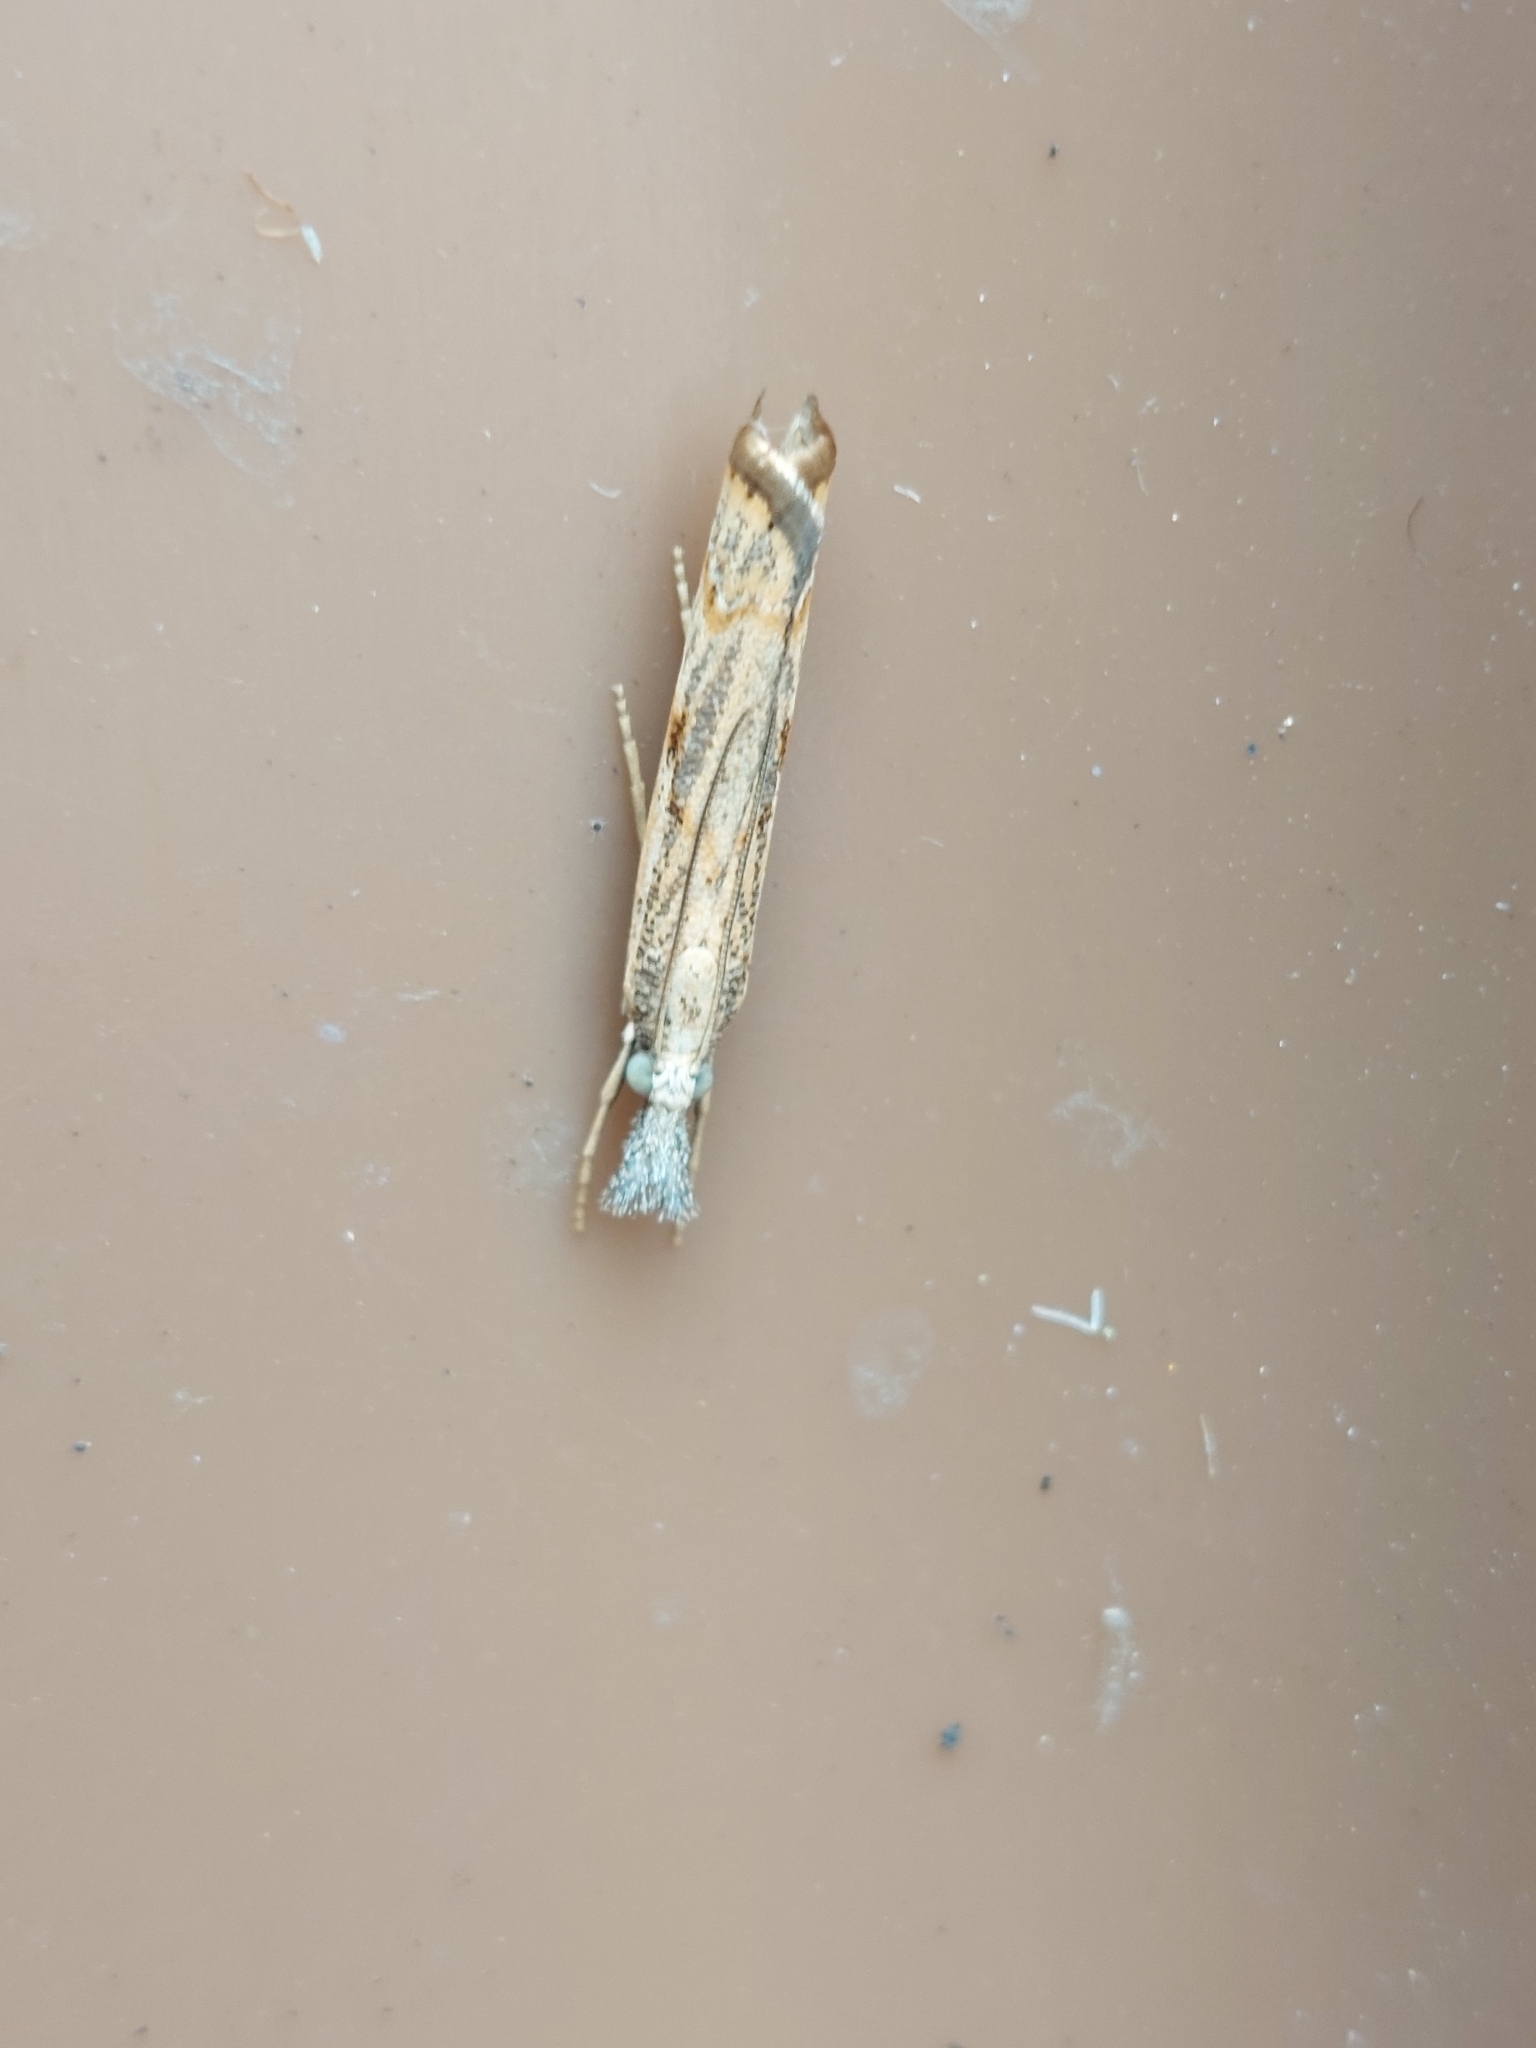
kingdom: Animalia
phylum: Arthropoda
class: Insecta
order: Lepidoptera
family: Crambidae
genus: Agriphila
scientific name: Agriphila geniculea
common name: Elbow-stripe grass-veneer
